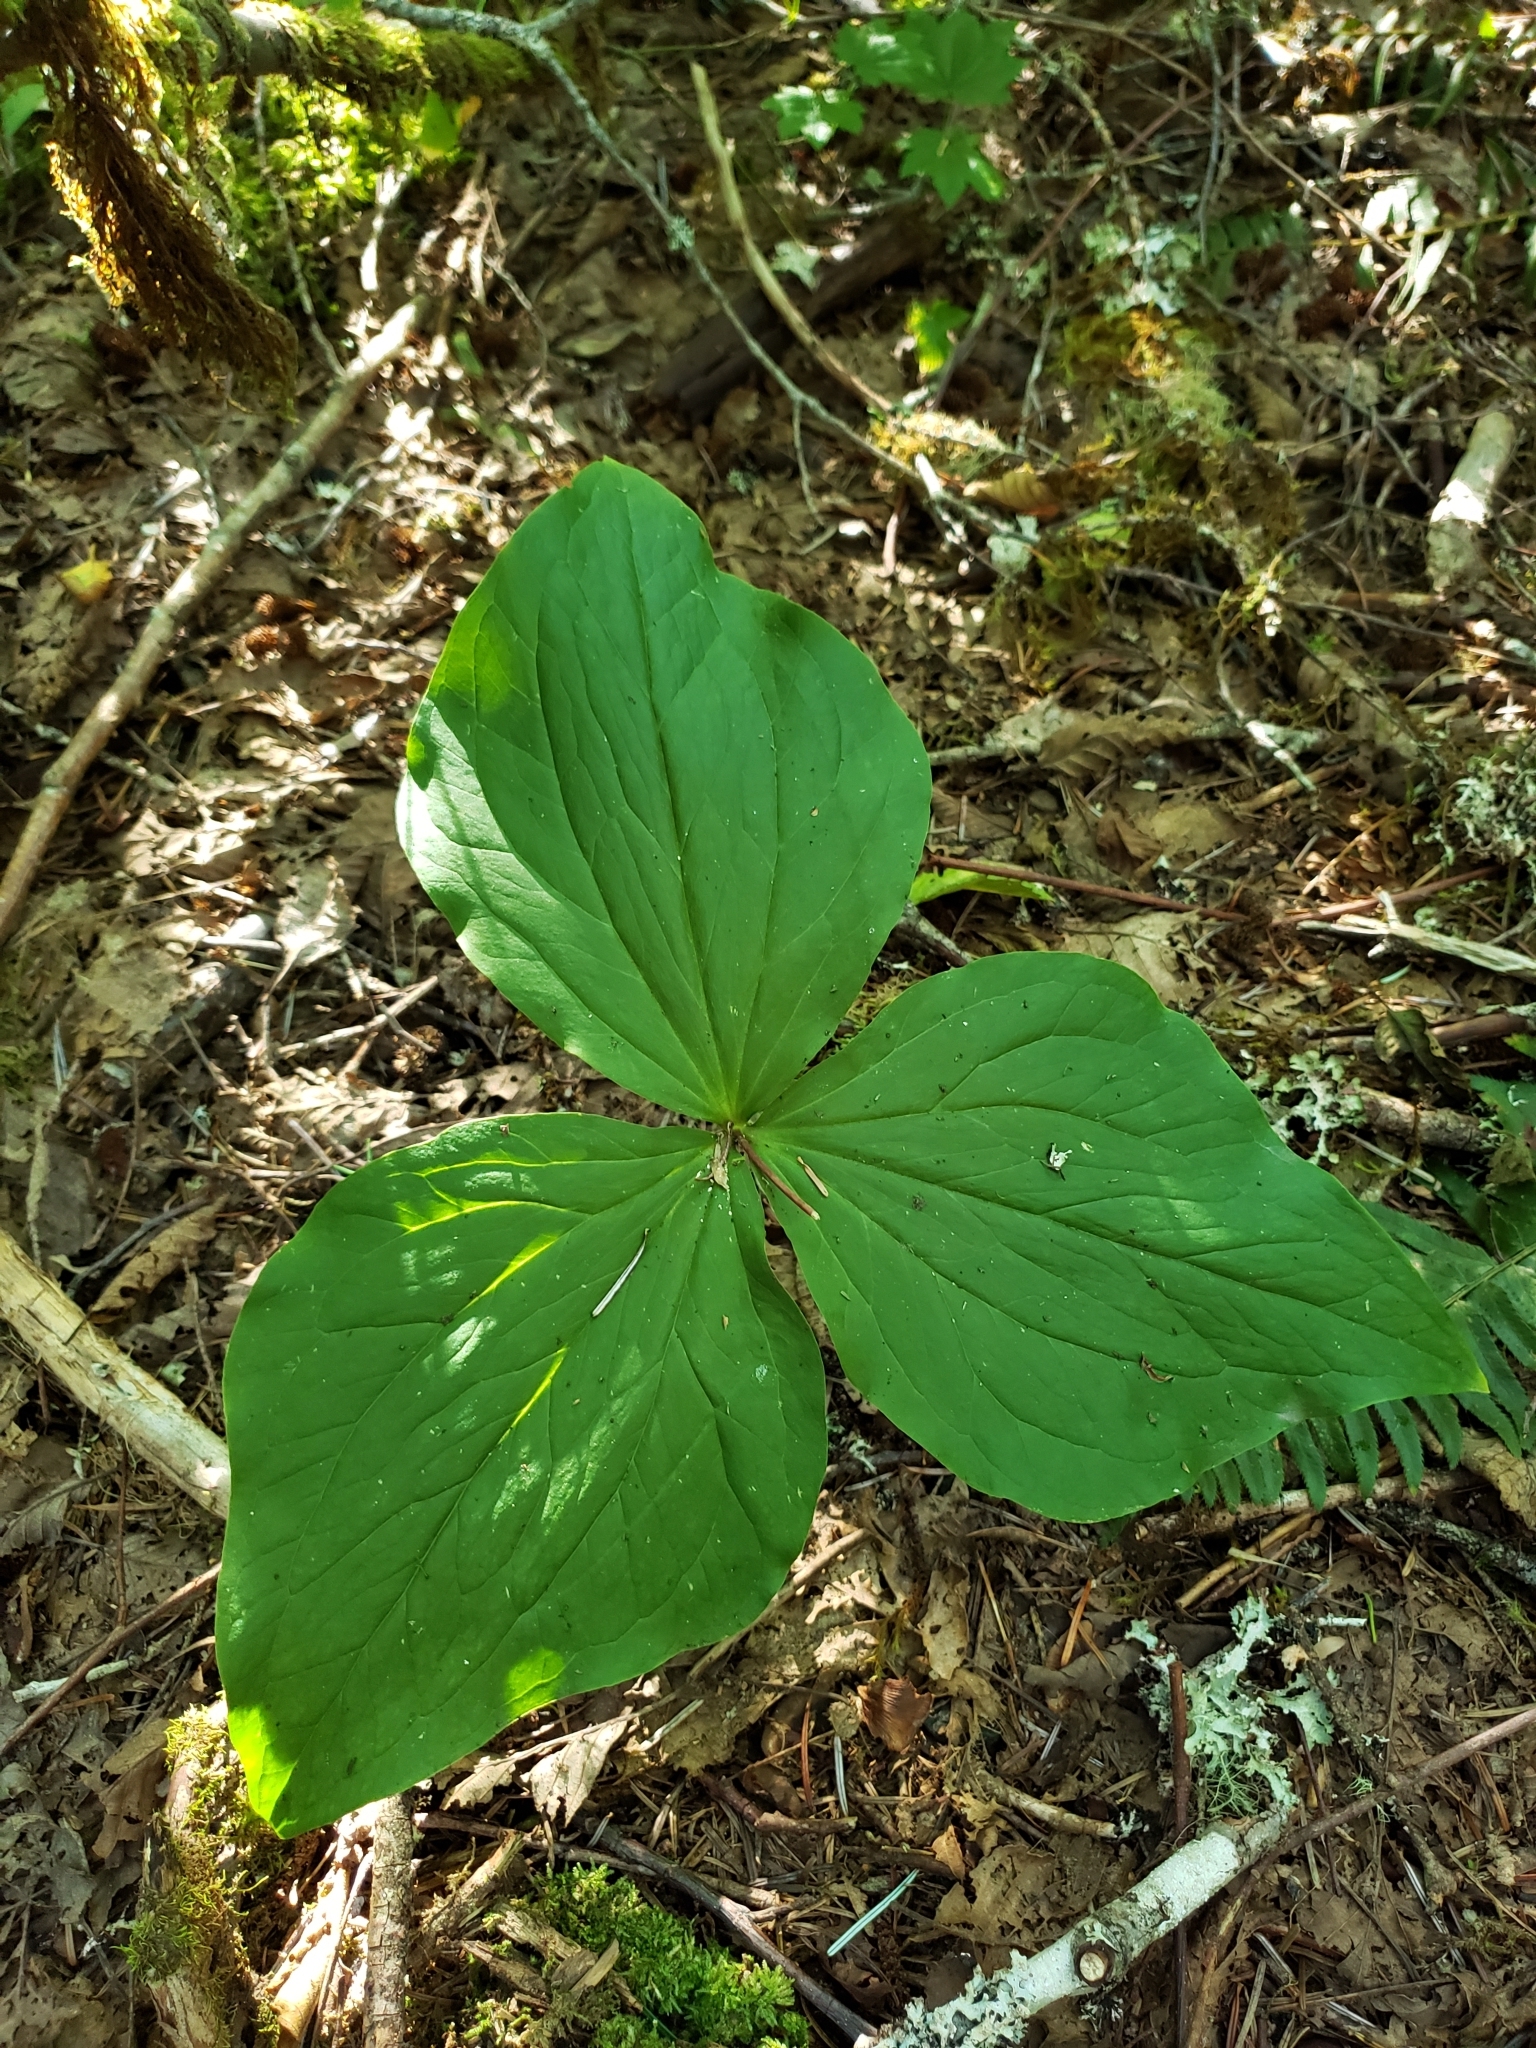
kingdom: Plantae
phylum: Tracheophyta
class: Liliopsida
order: Liliales
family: Melanthiaceae
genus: Trillium
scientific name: Trillium ovatum
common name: Pacific trillium
